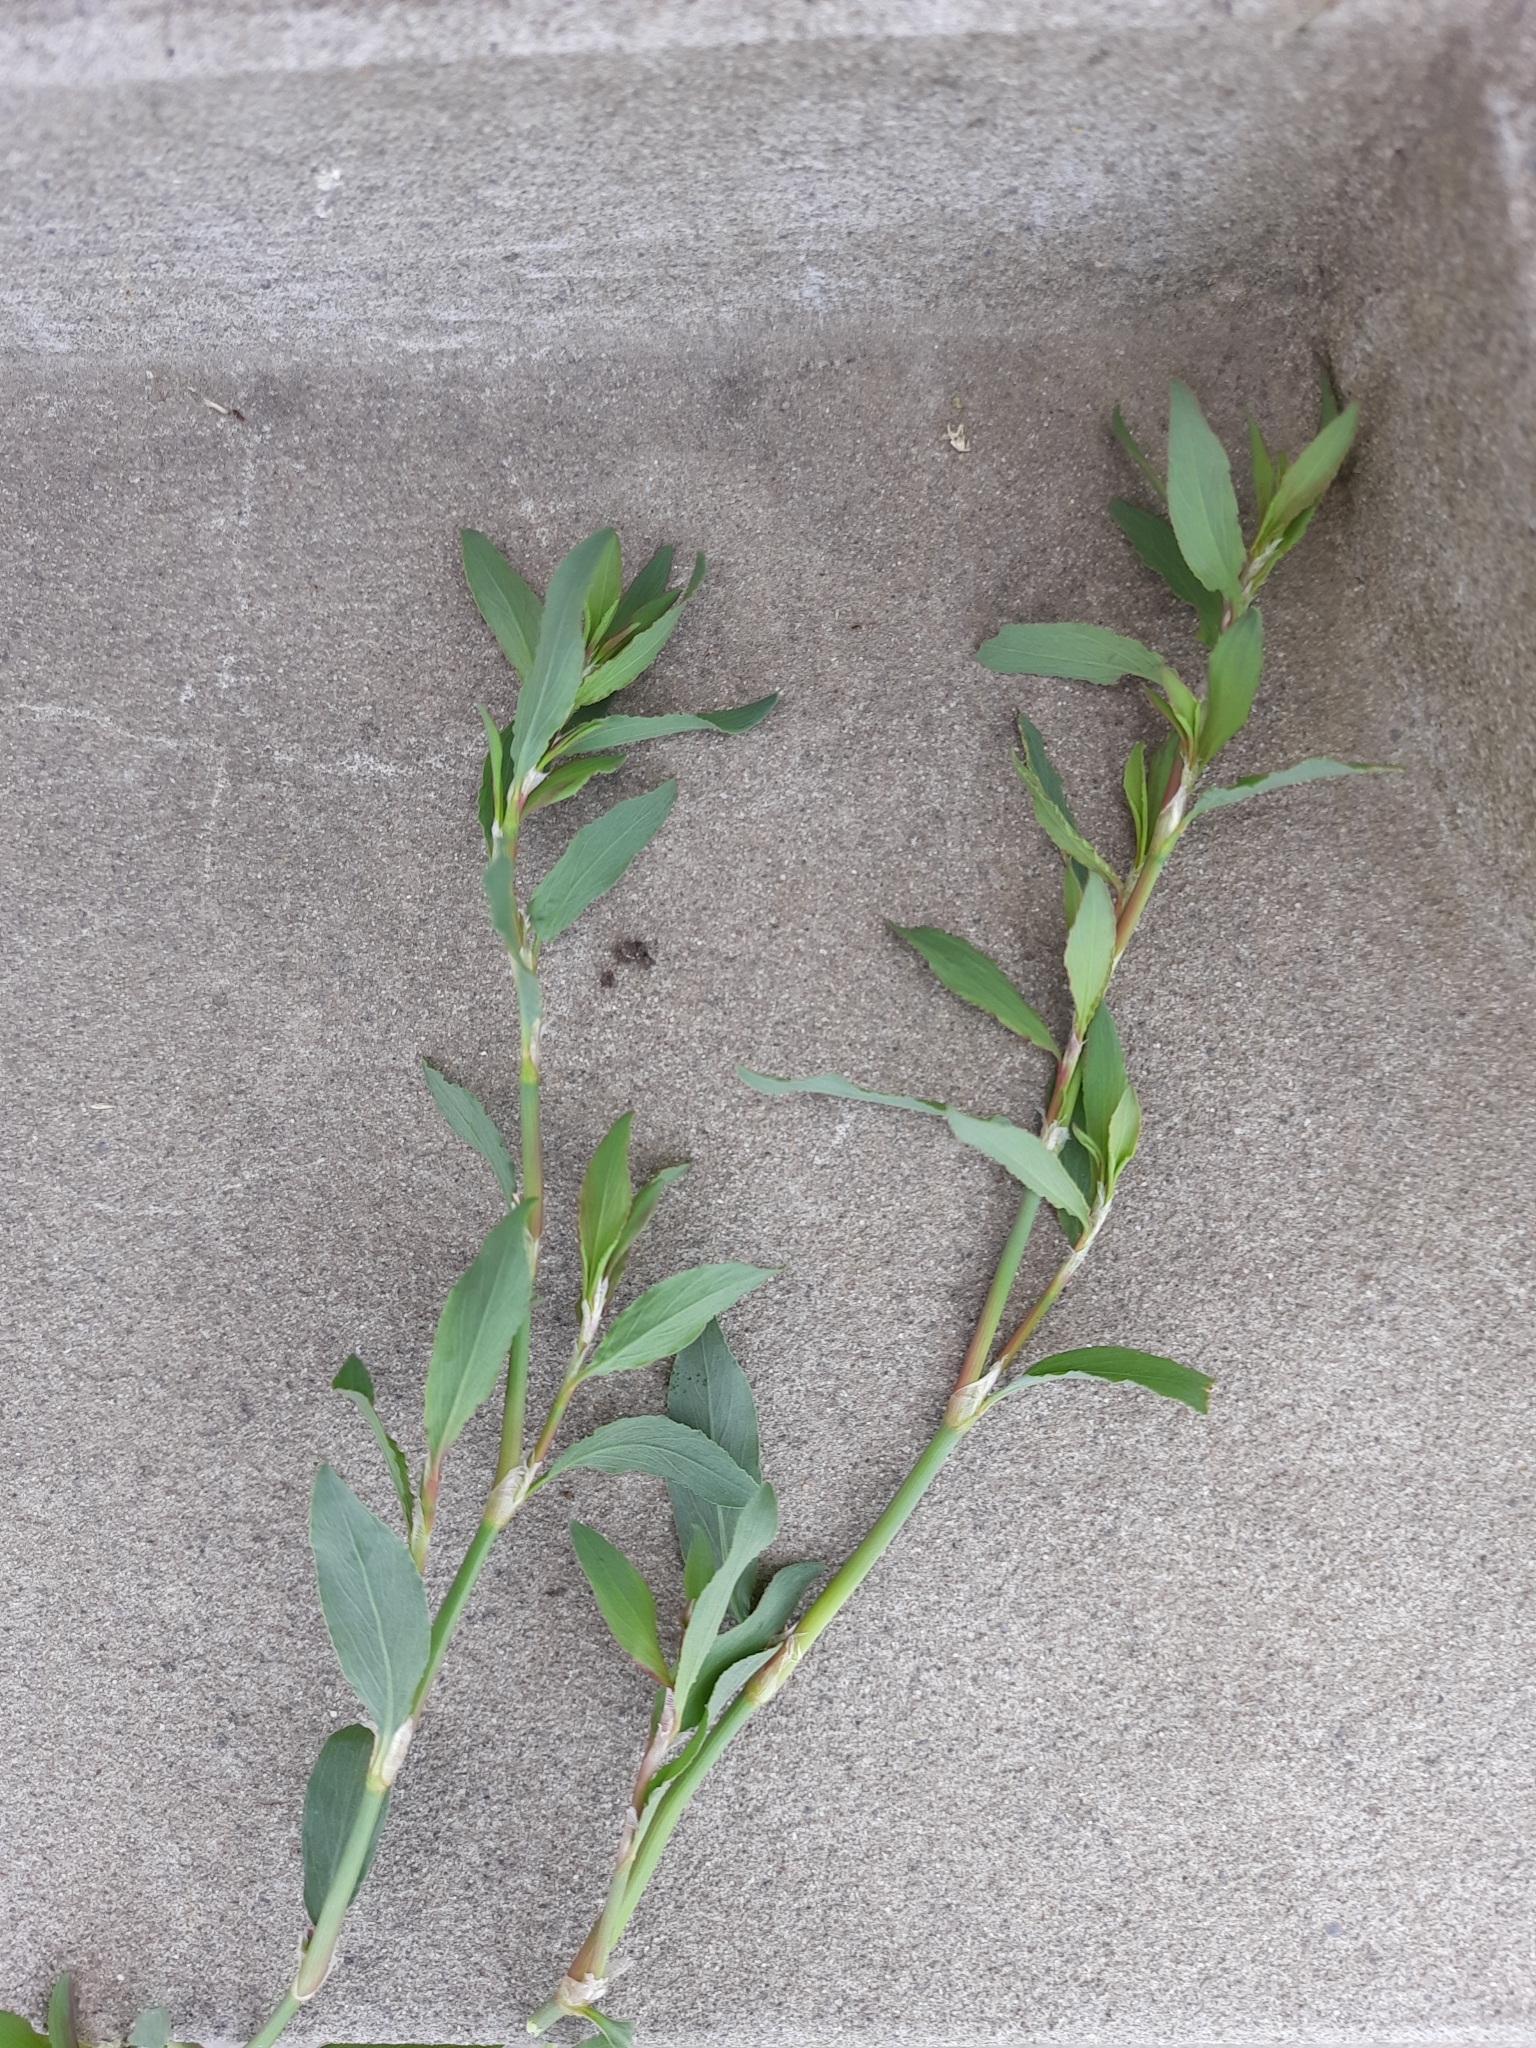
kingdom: Plantae
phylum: Tracheophyta
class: Magnoliopsida
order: Caryophyllales
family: Polygonaceae
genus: Polygonum
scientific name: Polygonum aviculare
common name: Prostrate knotweed
